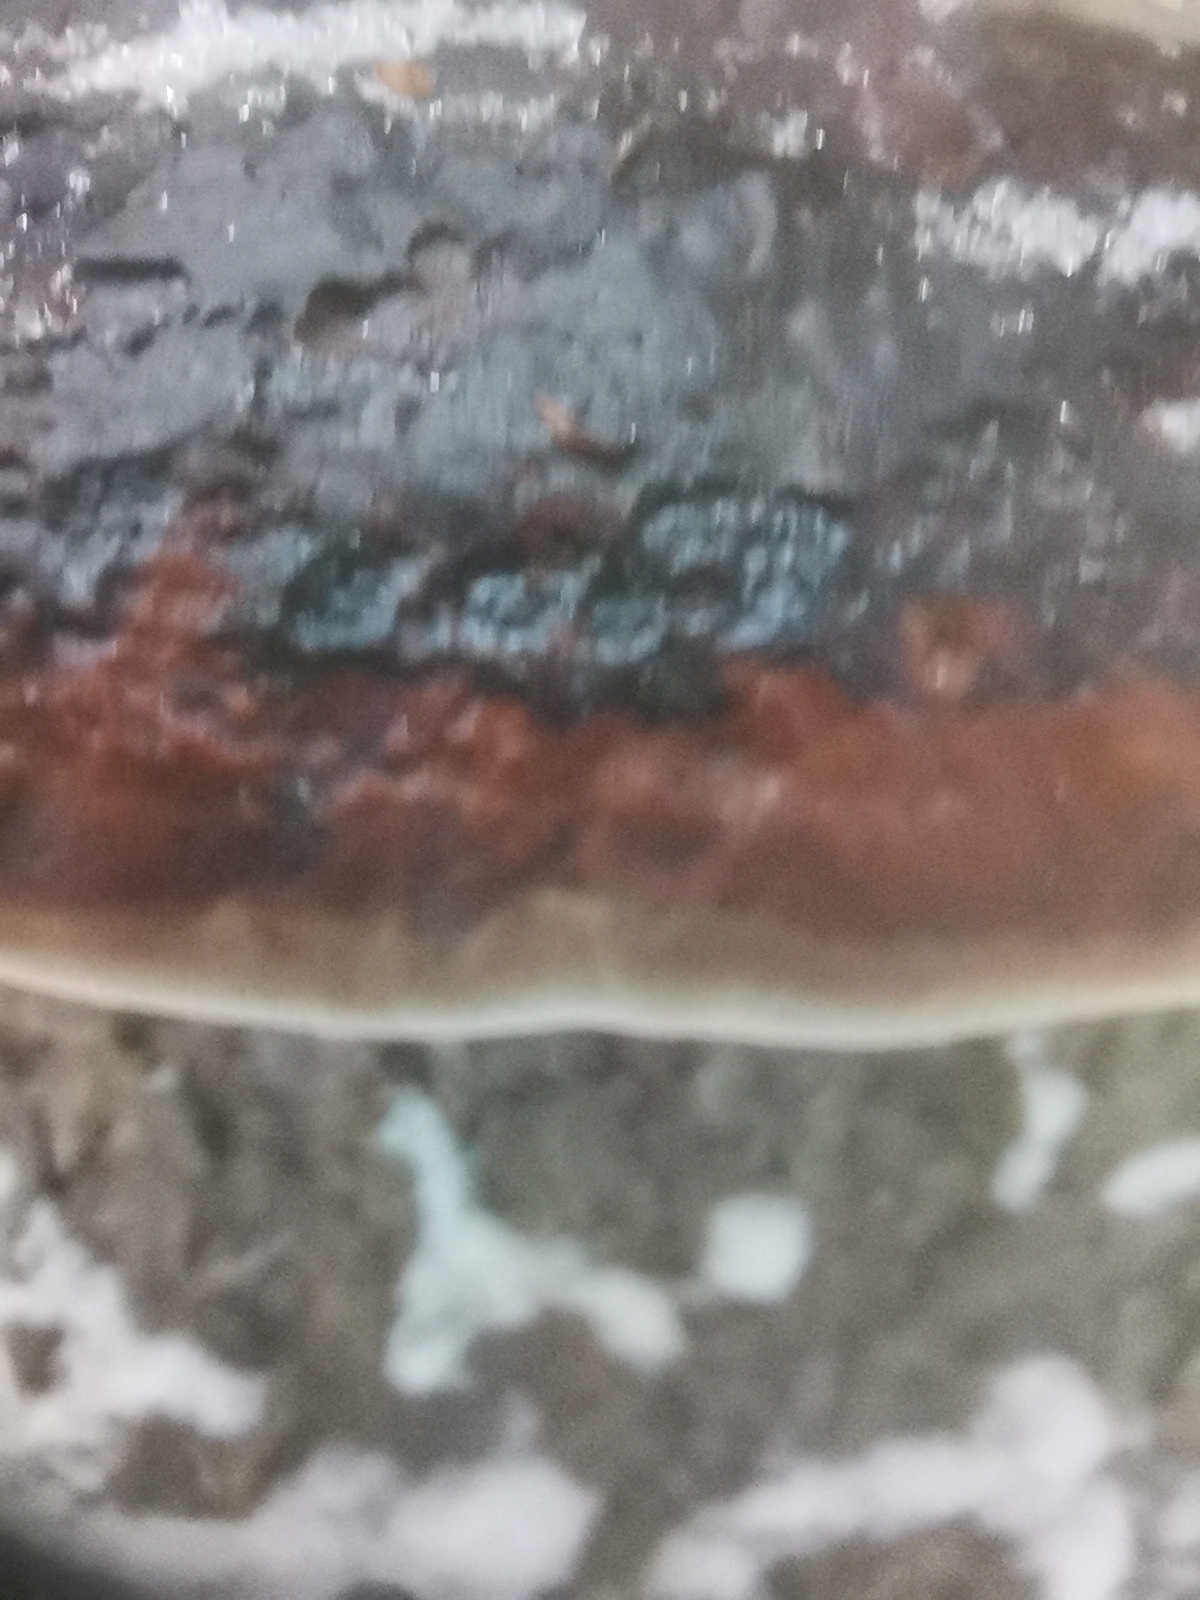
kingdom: Fungi
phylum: Basidiomycota
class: Agaricomycetes
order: Polyporales
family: Fomitopsidaceae
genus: Fomitopsis
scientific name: Fomitopsis pinicola
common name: Red-belted bracket
